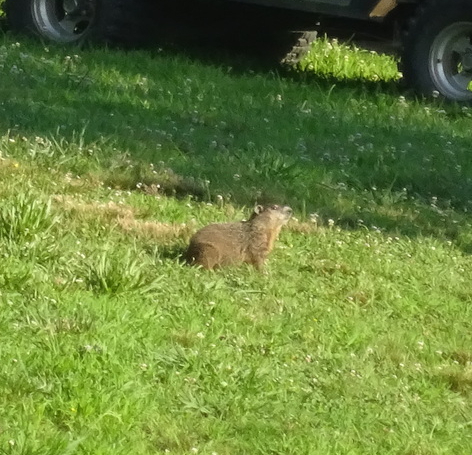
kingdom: Animalia
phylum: Chordata
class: Mammalia
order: Rodentia
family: Sciuridae
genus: Marmota
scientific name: Marmota monax
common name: Groundhog
